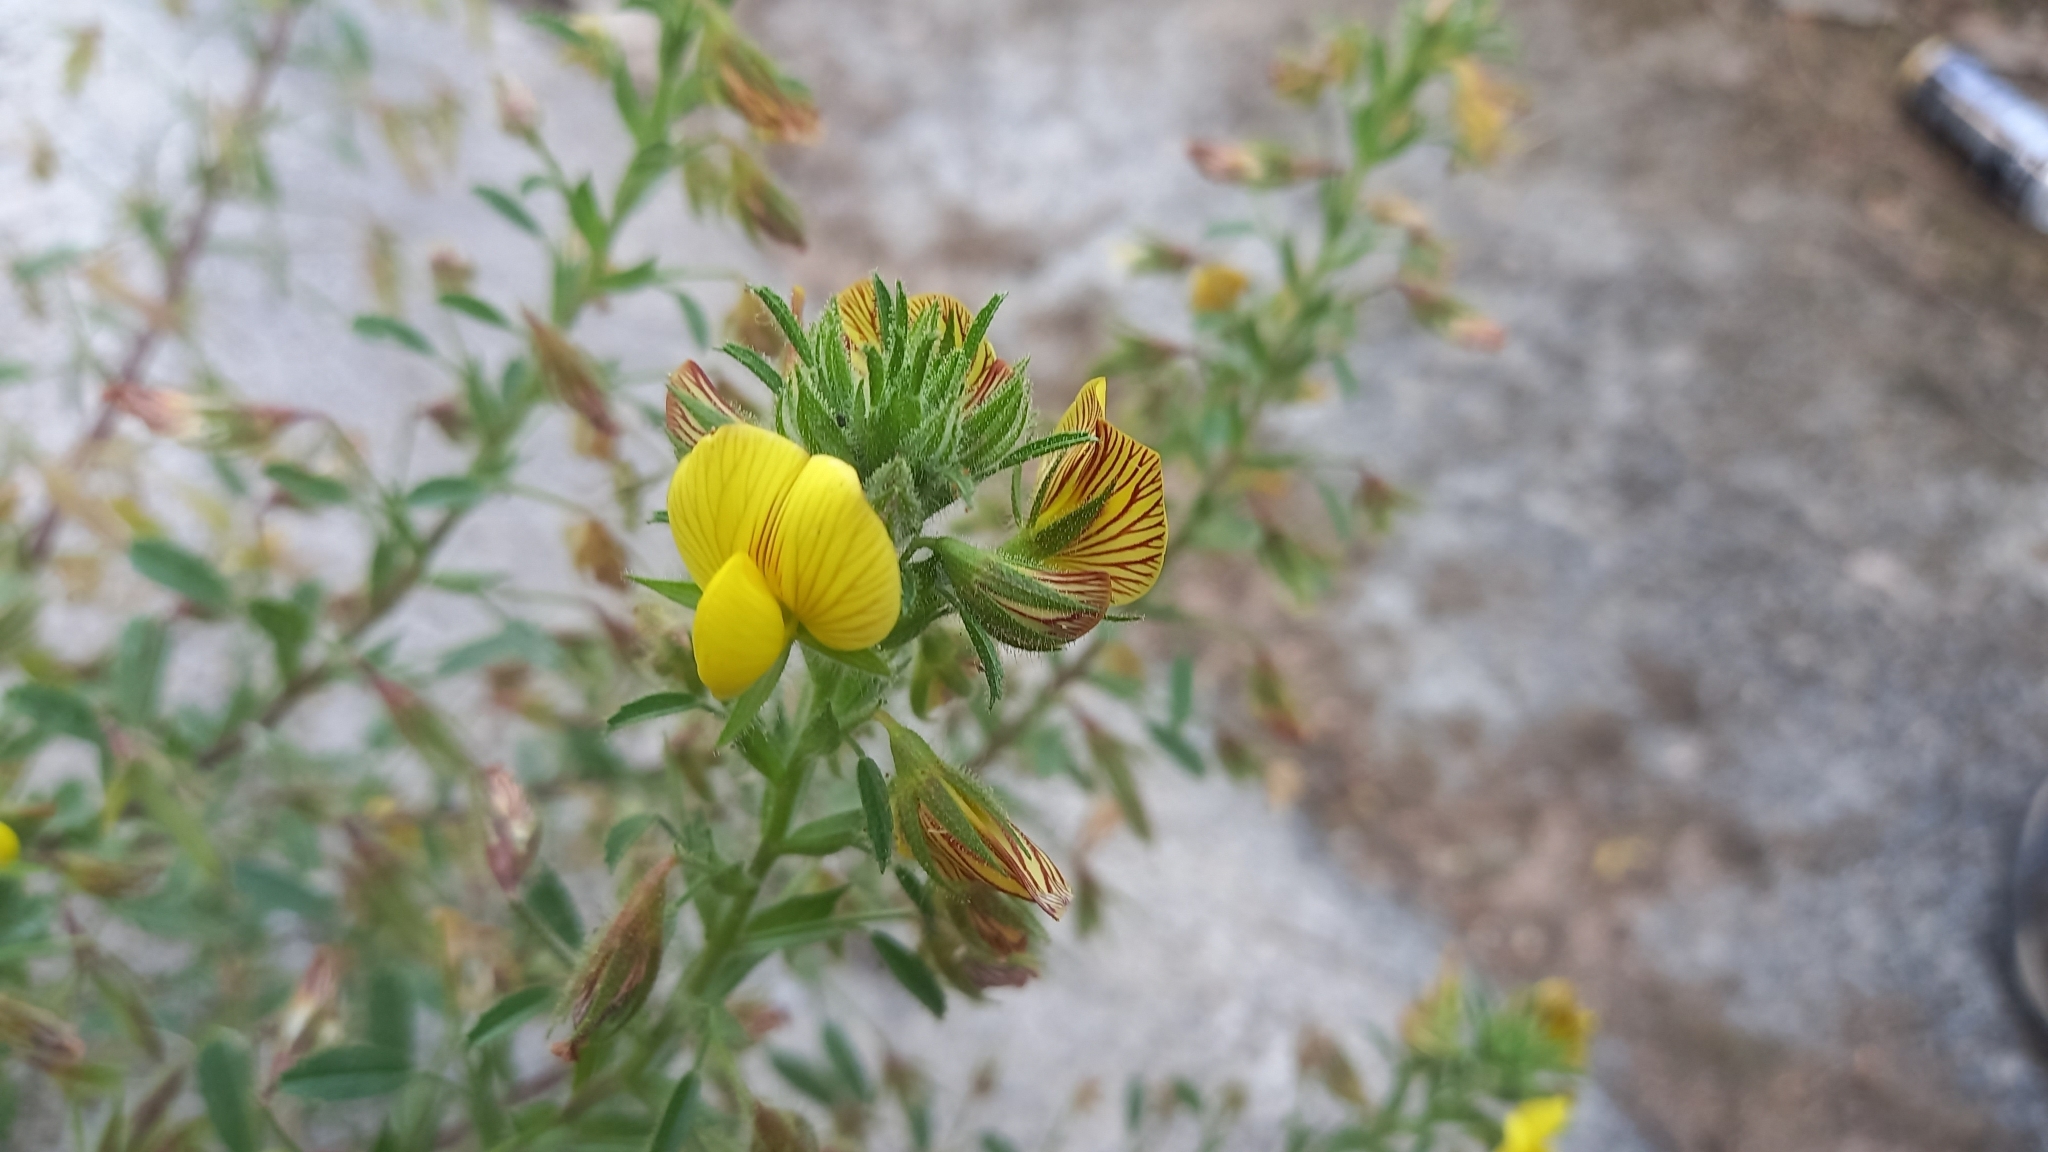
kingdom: Plantae
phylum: Tracheophyta
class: Magnoliopsida
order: Fabales
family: Fabaceae
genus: Ononis
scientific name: Ononis natrix
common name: Yellow restharrow
